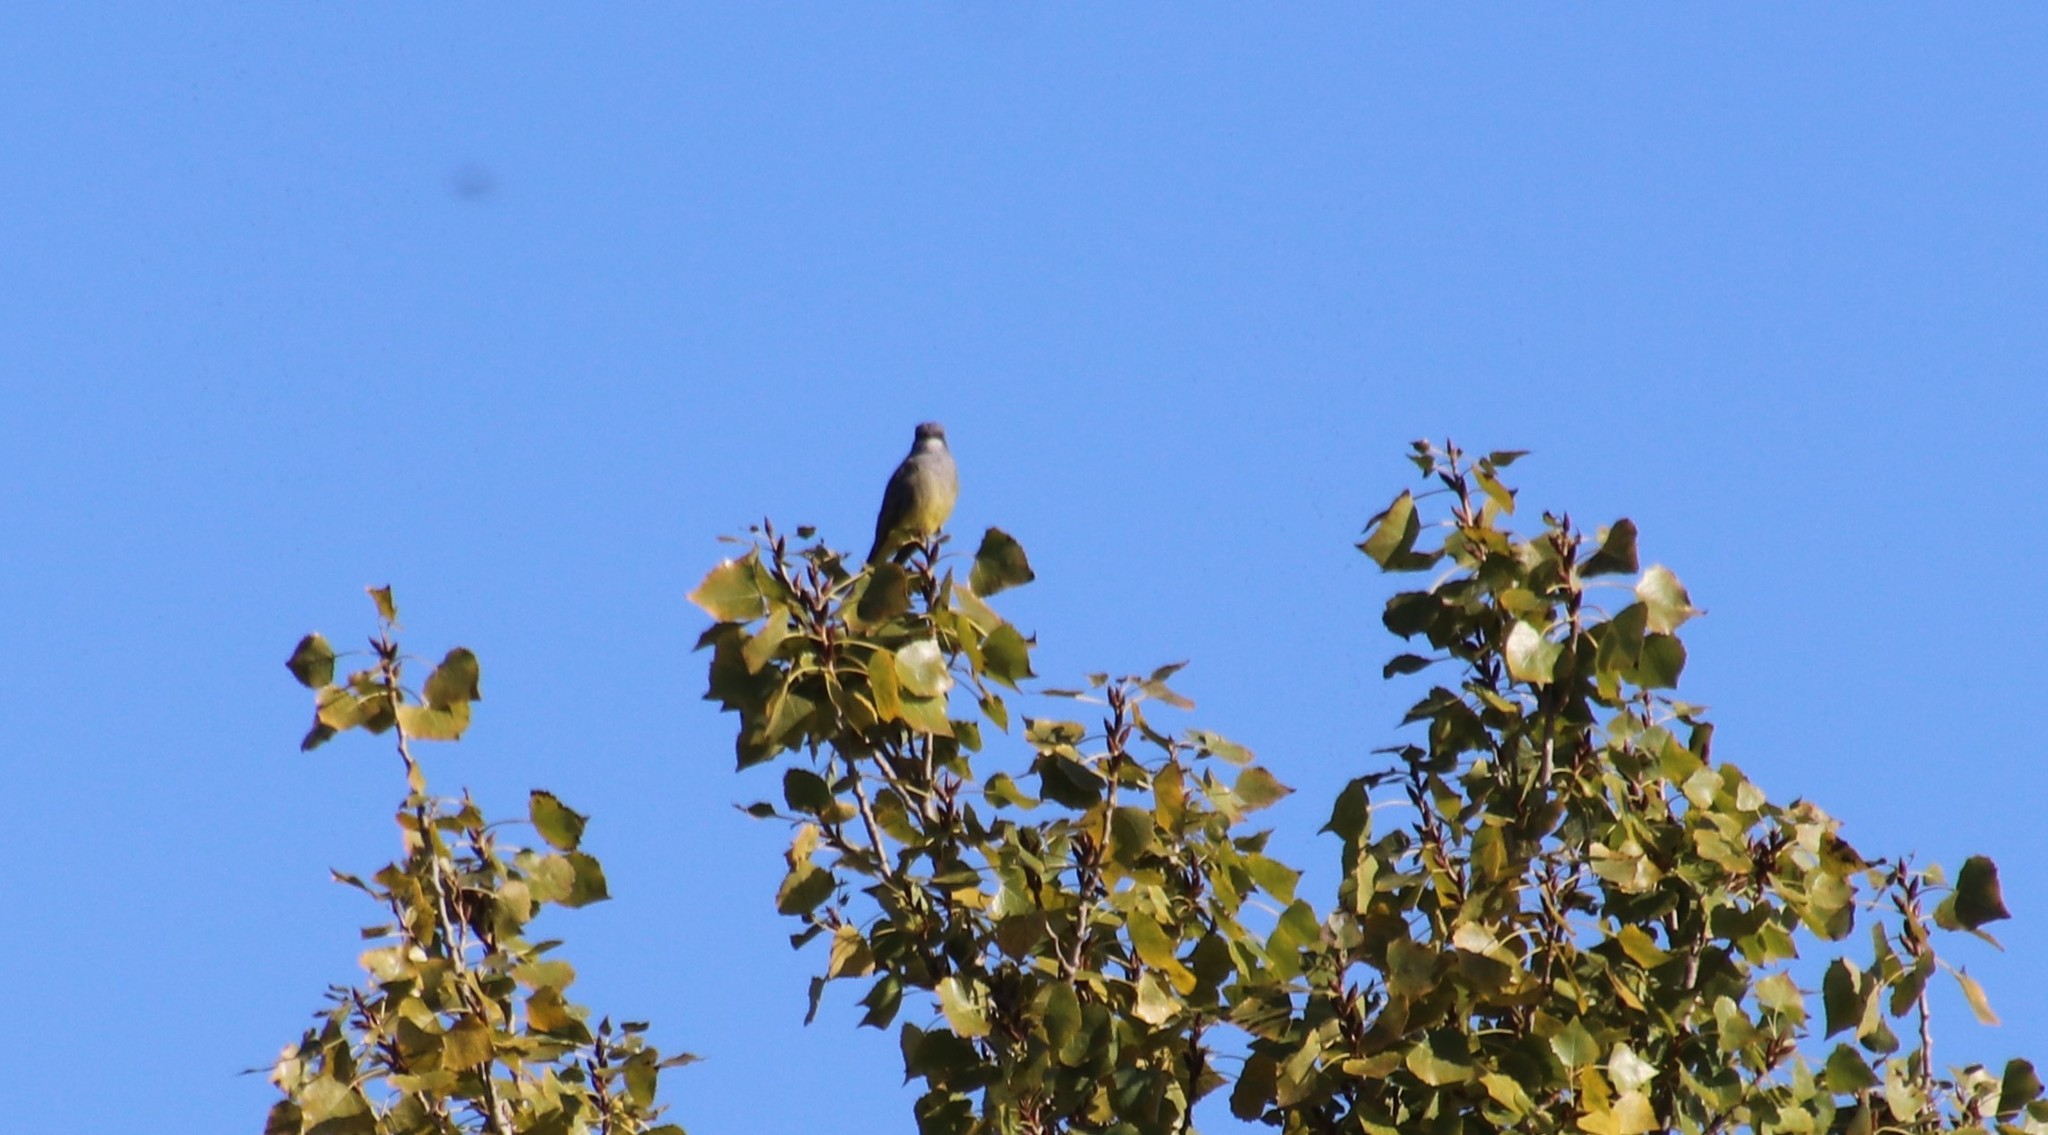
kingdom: Animalia
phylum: Chordata
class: Aves
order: Passeriformes
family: Tyrannidae
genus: Tyrannus
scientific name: Tyrannus vociferans
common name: Cassin's kingbird
